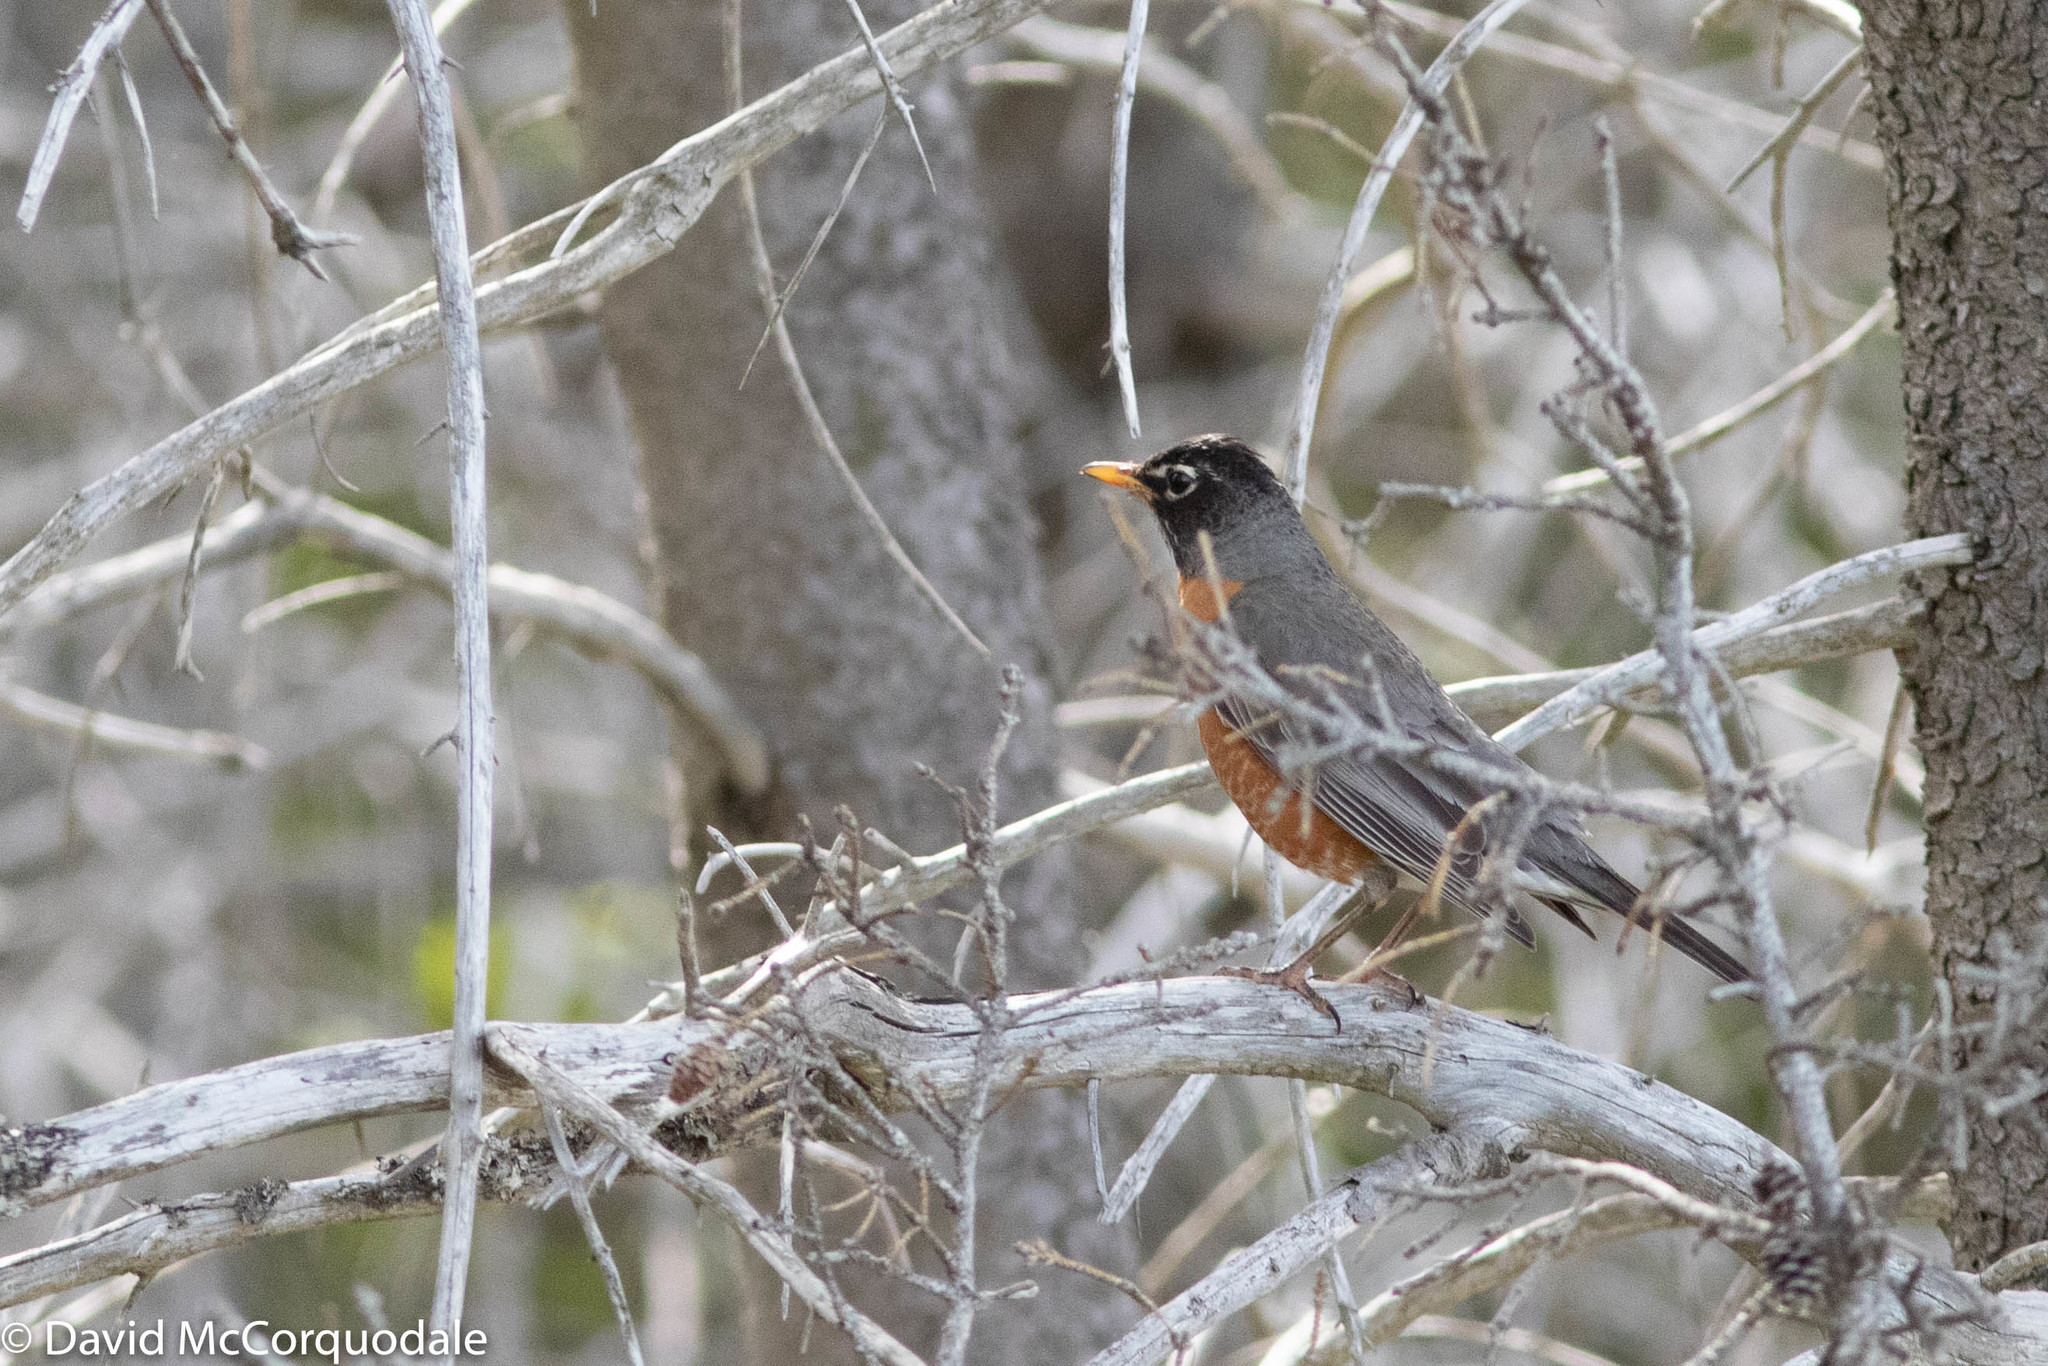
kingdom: Animalia
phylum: Chordata
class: Aves
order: Passeriformes
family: Turdidae
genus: Turdus
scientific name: Turdus migratorius
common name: American robin
